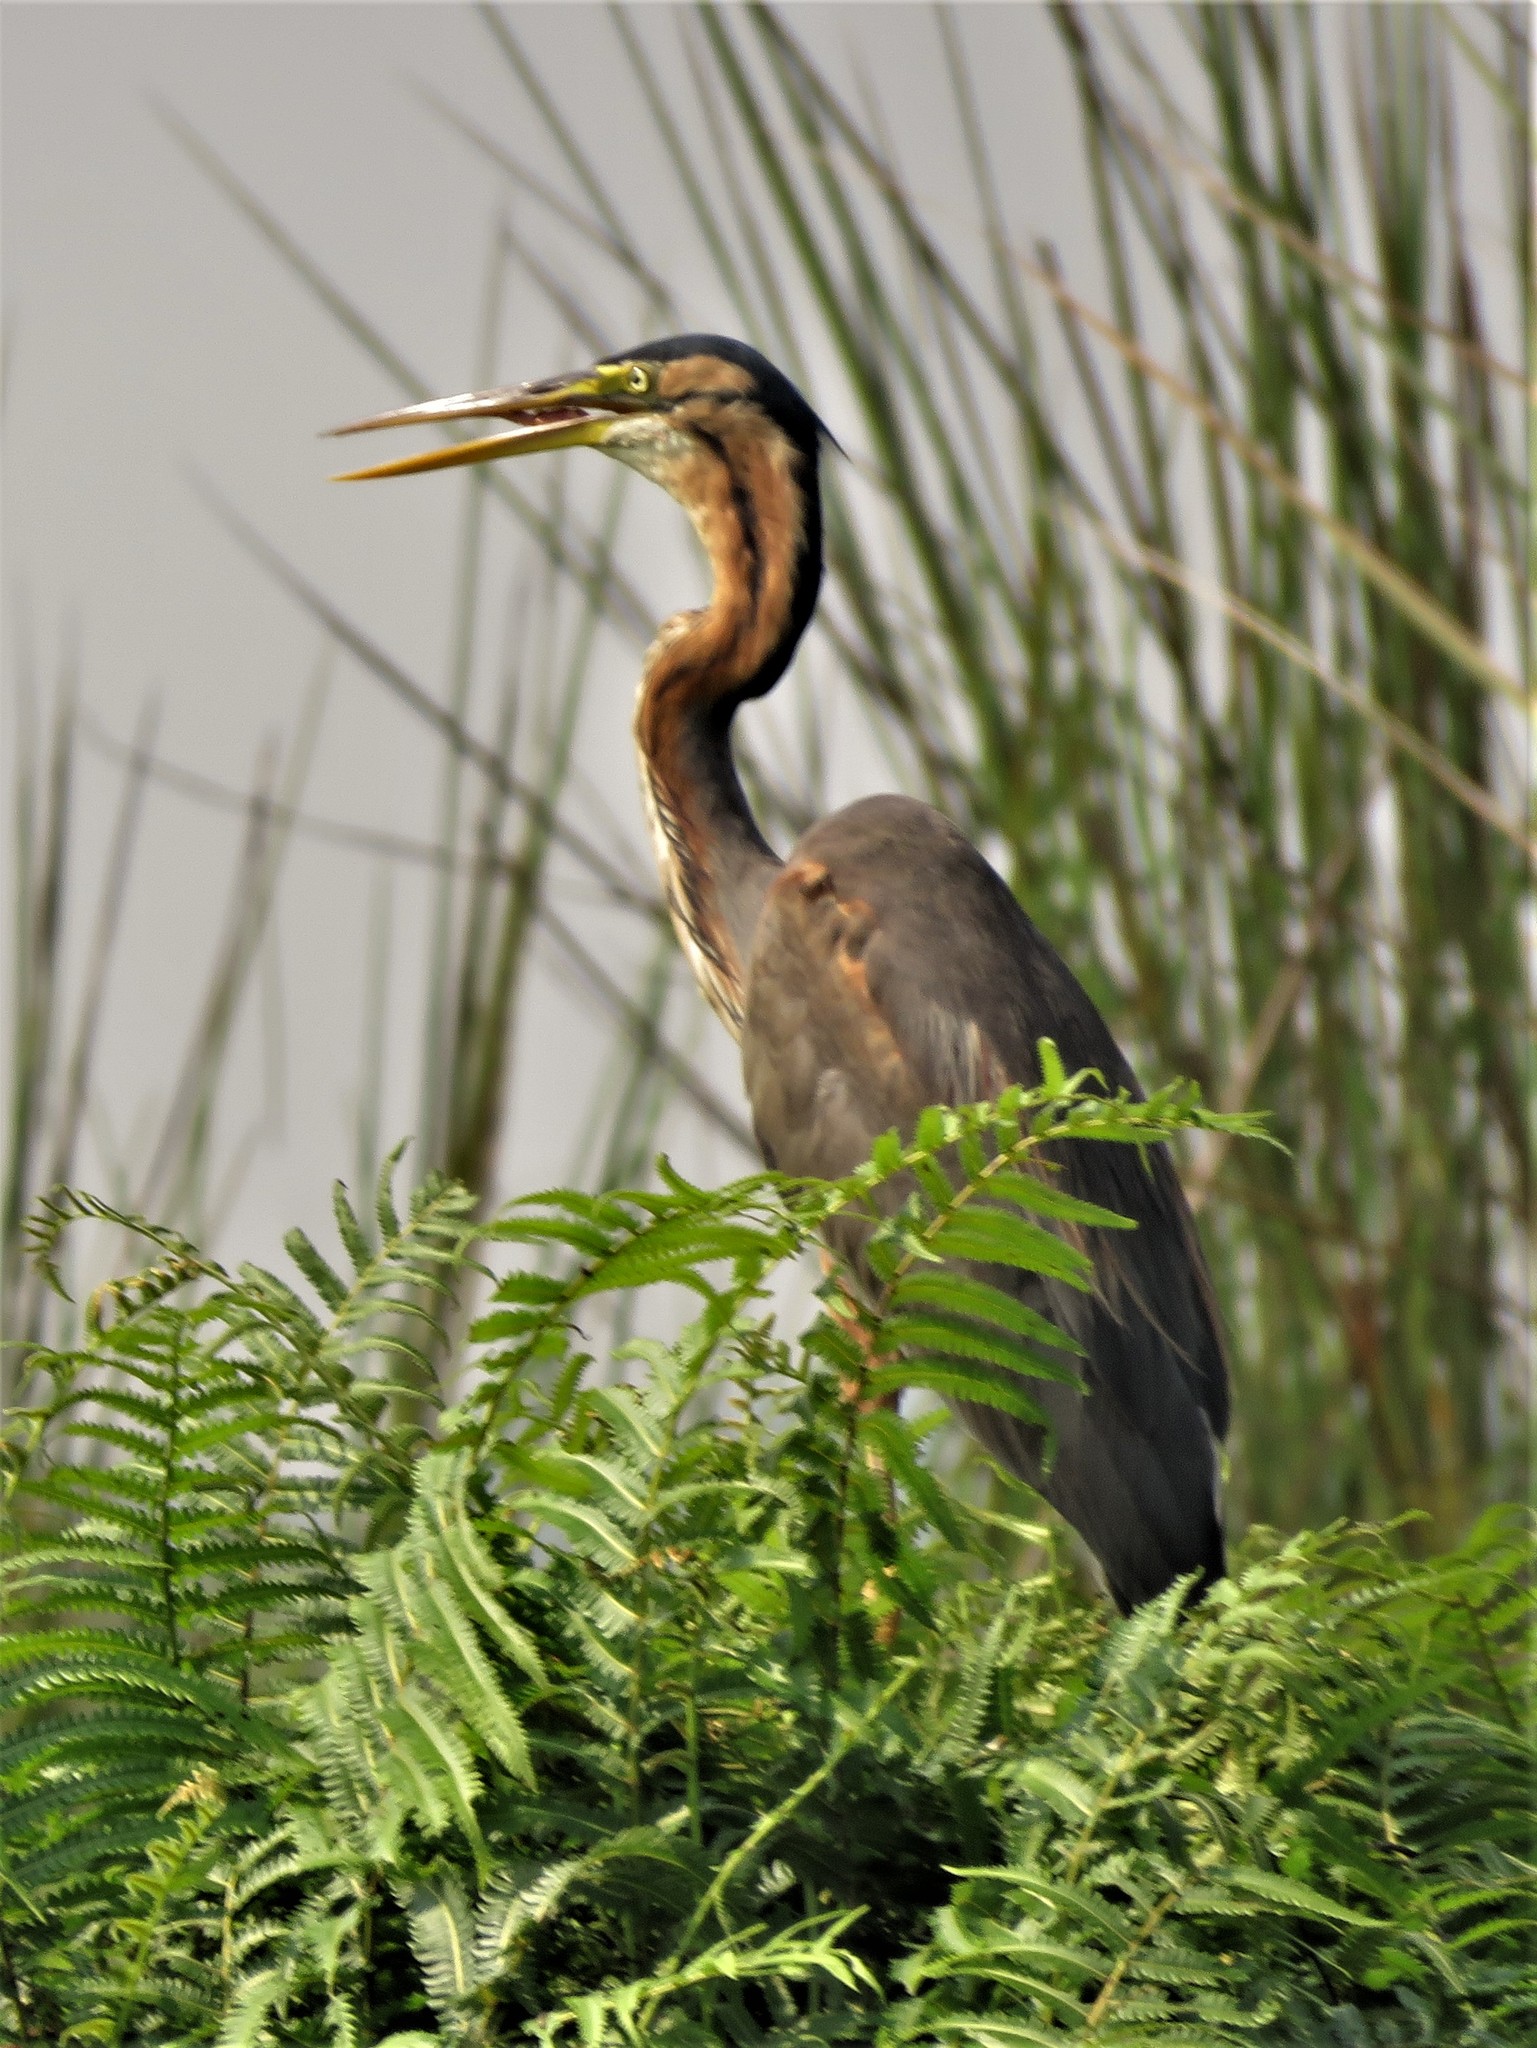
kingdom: Animalia
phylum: Chordata
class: Aves
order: Pelecaniformes
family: Ardeidae
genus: Ardea
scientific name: Ardea purpurea
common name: Purple heron
